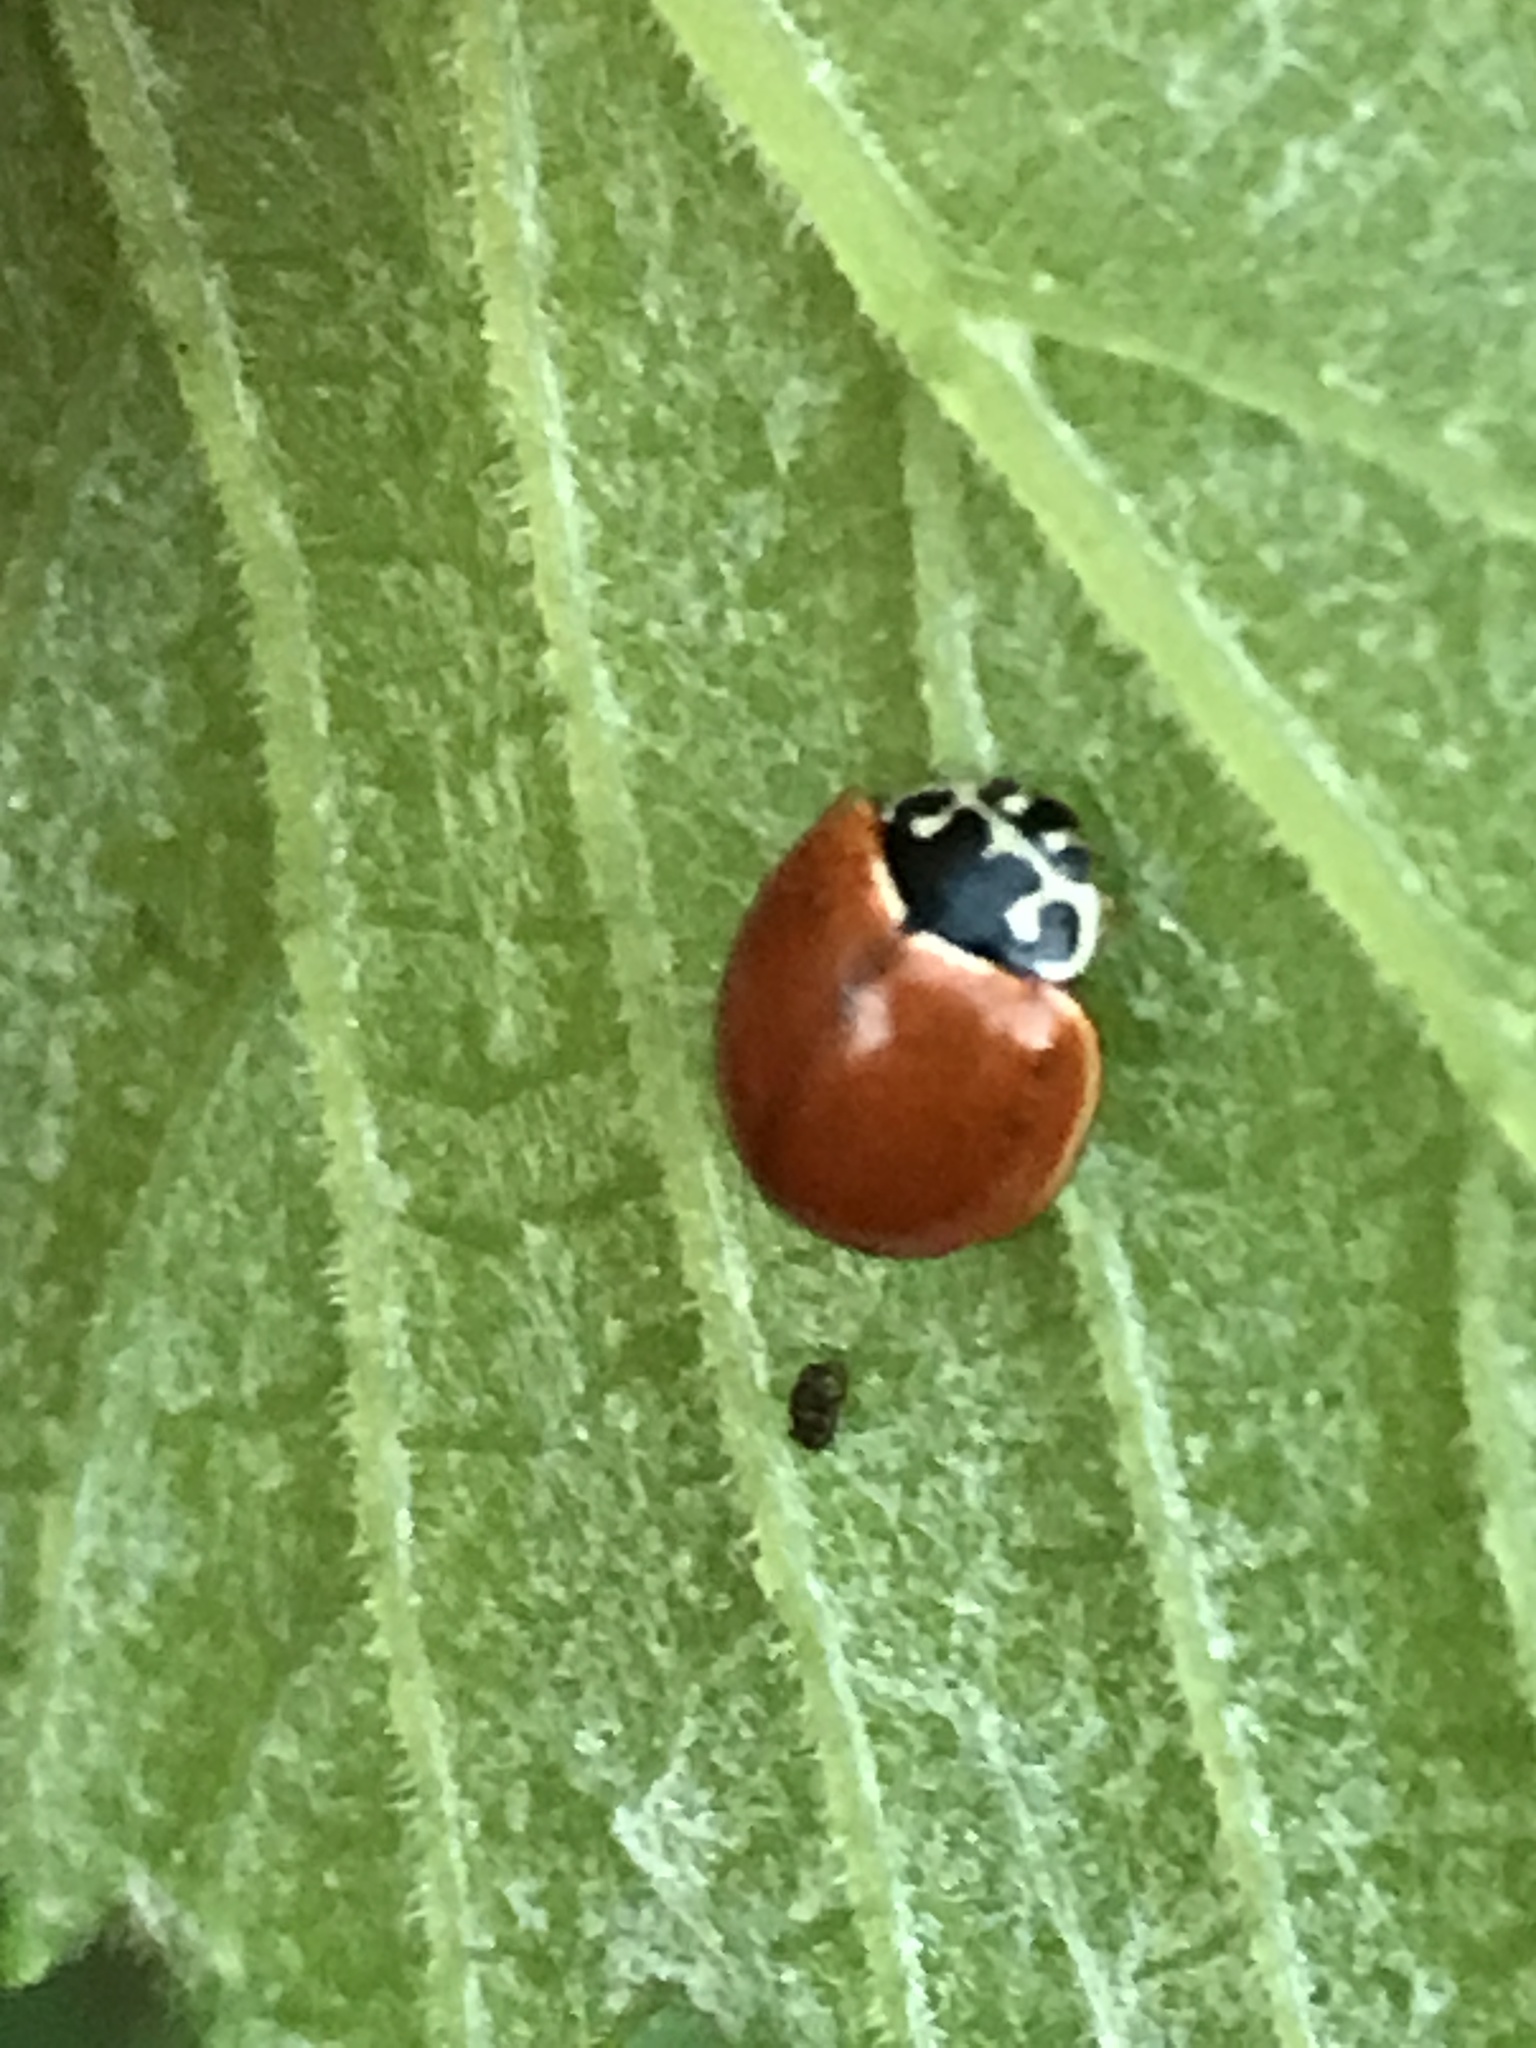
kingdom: Animalia
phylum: Arthropoda
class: Insecta
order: Coleoptera
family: Coccinellidae
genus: Cycloneda
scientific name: Cycloneda munda
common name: Polished lady beetle
